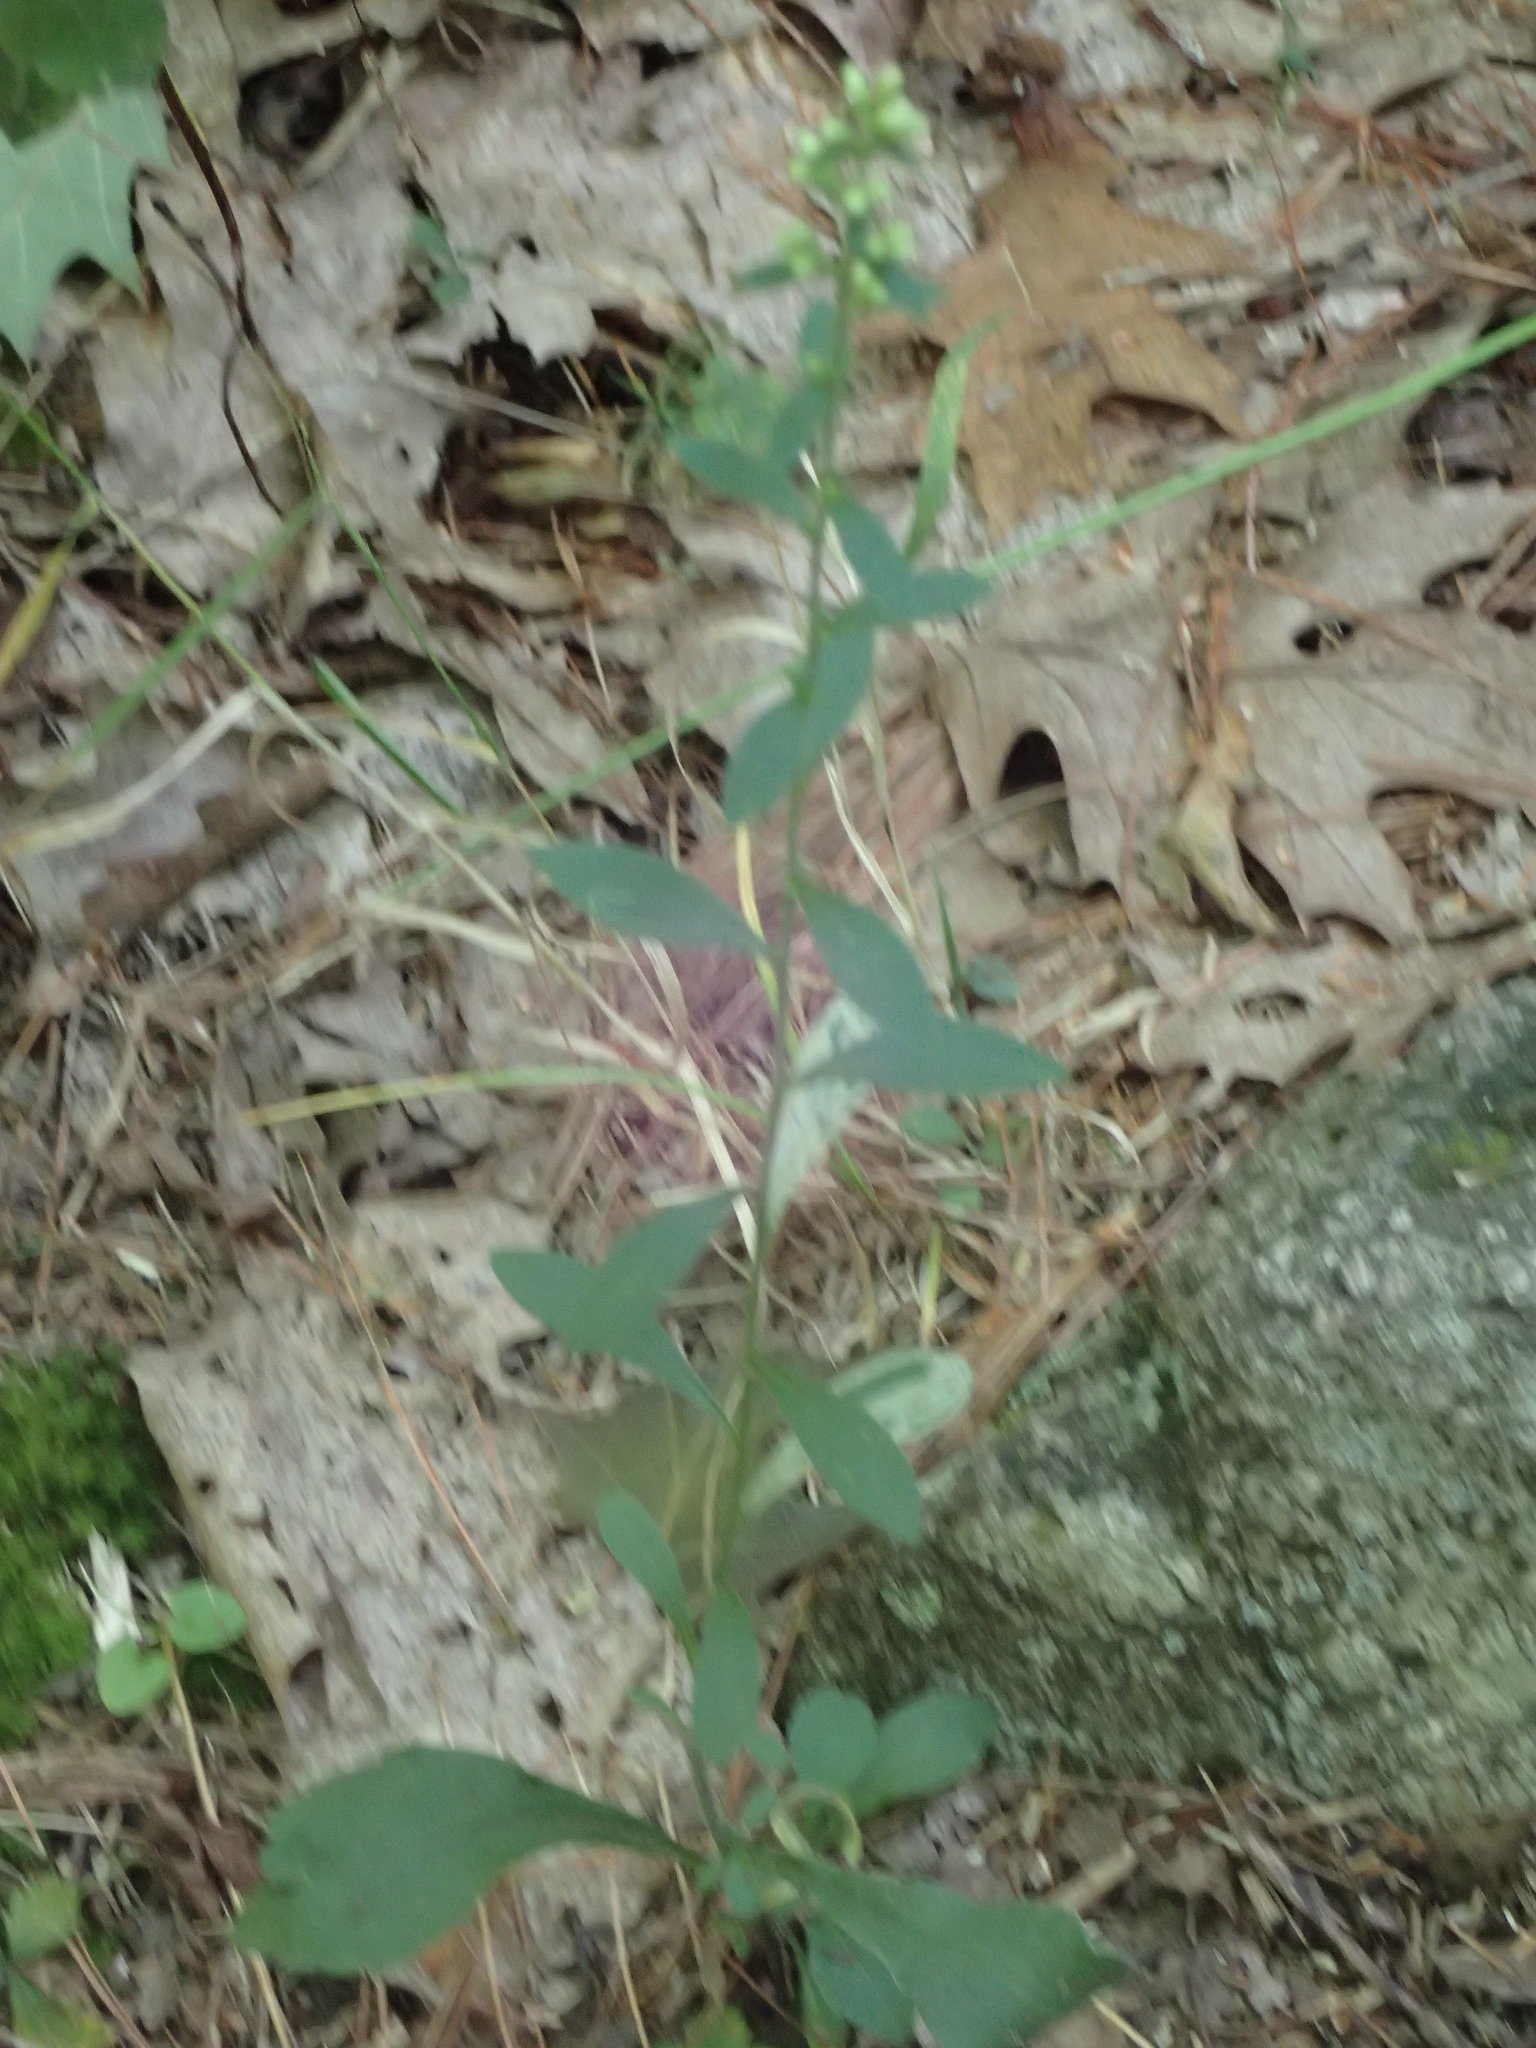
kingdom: Plantae
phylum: Tracheophyta
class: Magnoliopsida
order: Asterales
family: Asteraceae
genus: Solidago
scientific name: Solidago bicolor
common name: Silverrod
